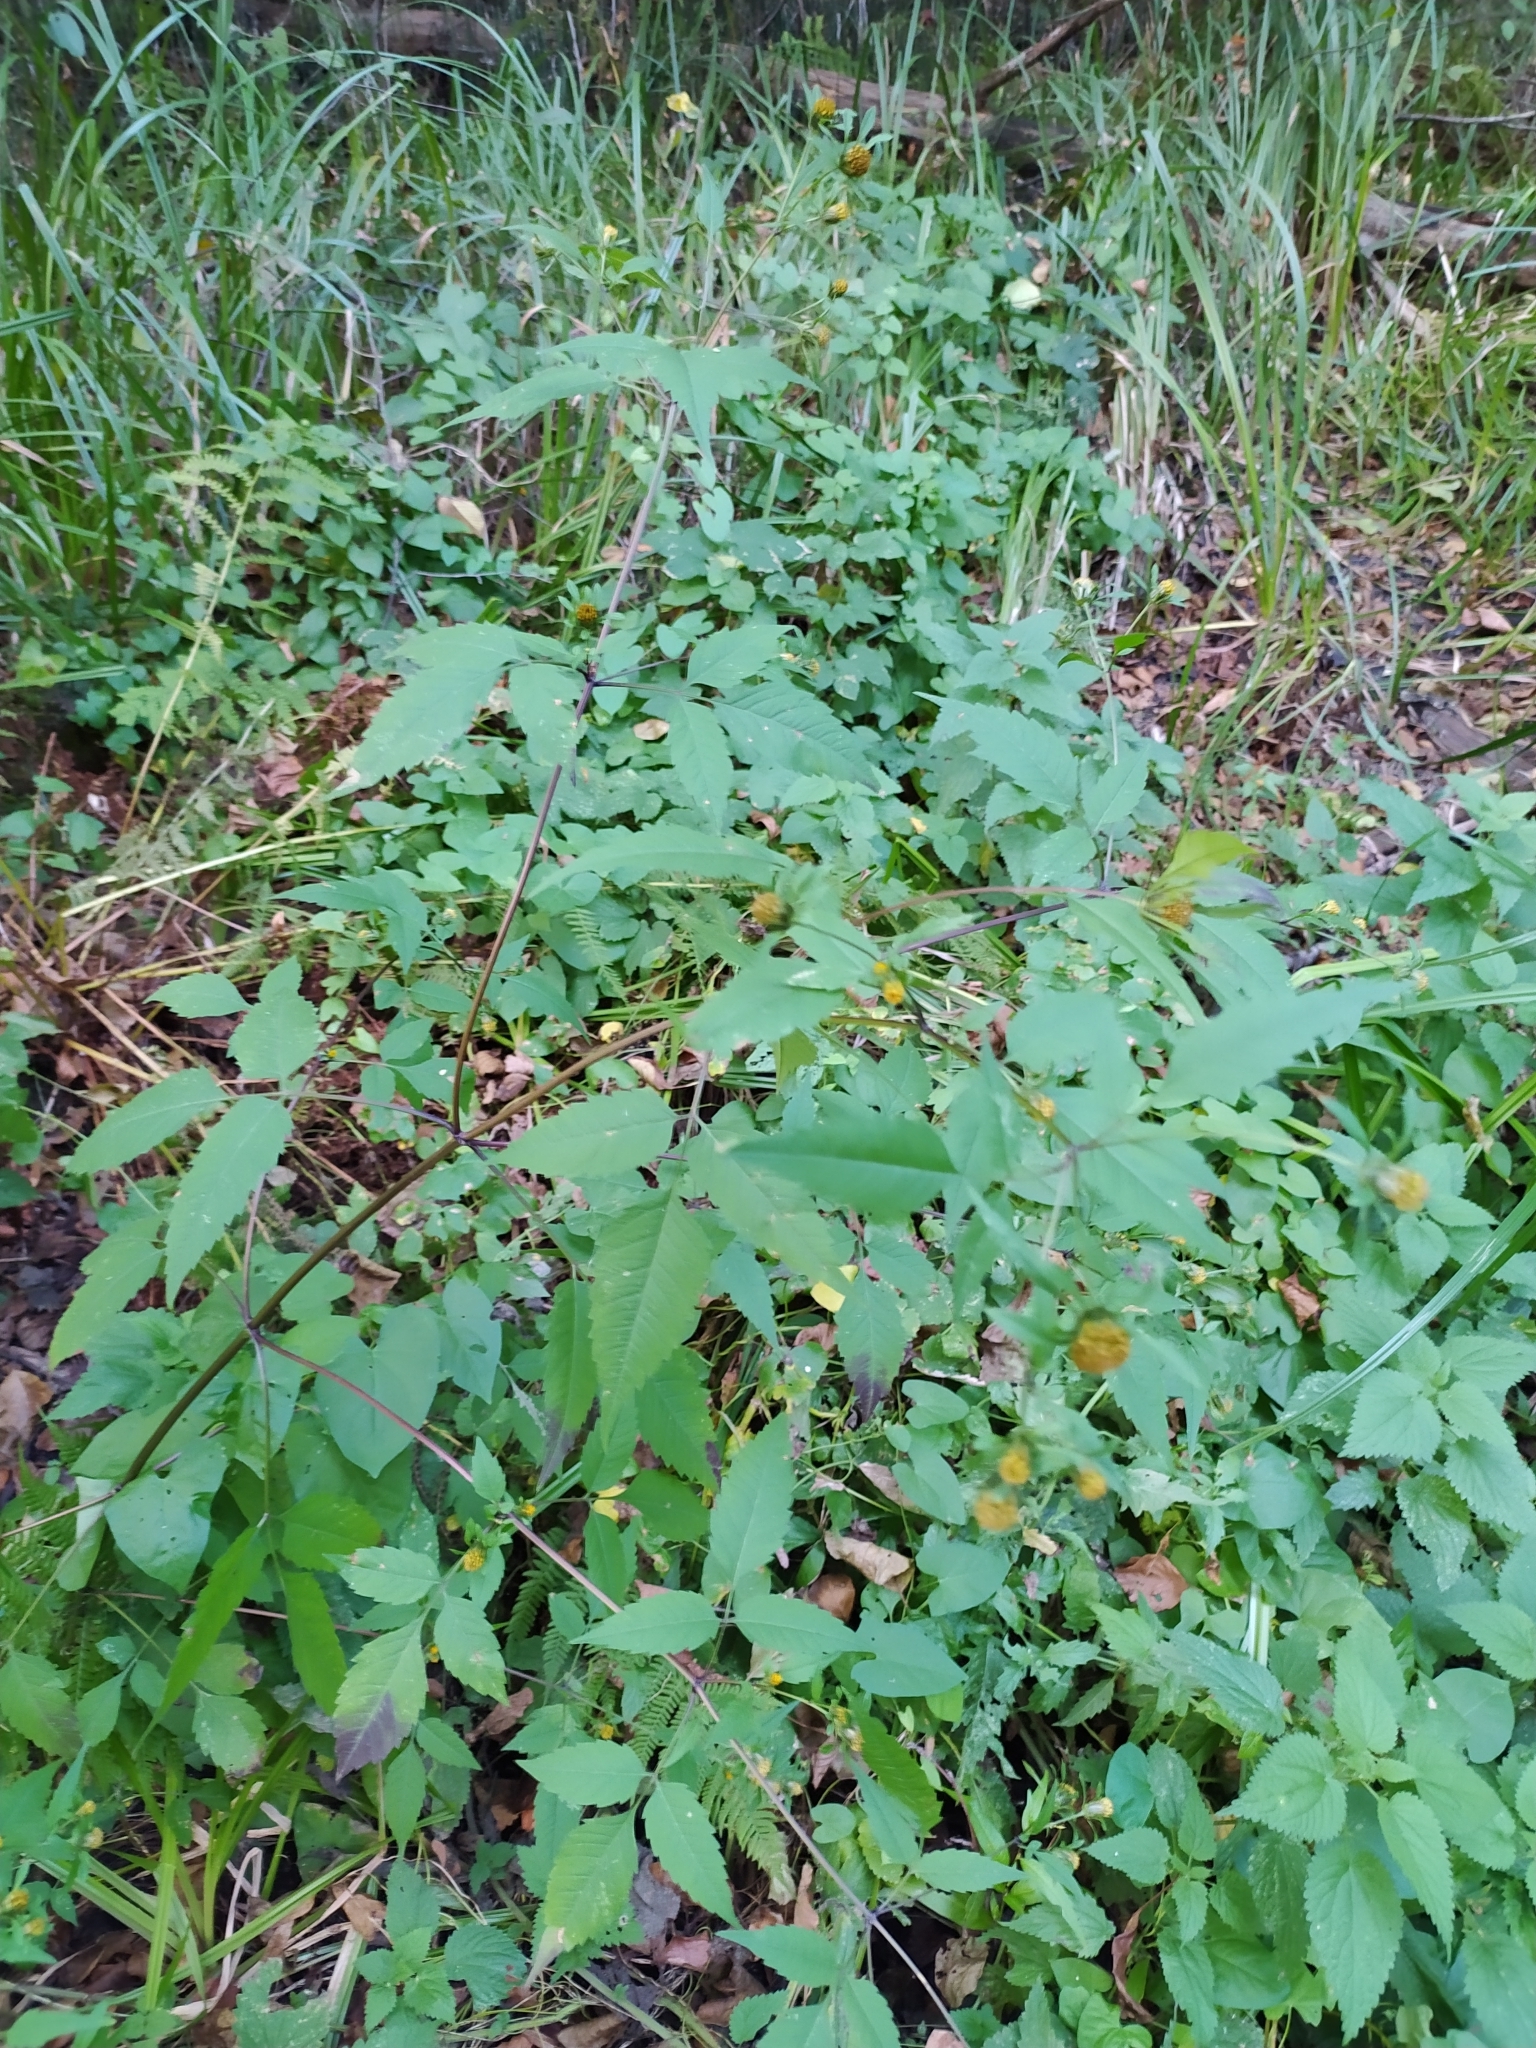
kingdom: Plantae
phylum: Tracheophyta
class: Magnoliopsida
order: Asterales
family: Asteraceae
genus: Bidens
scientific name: Bidens frondosa
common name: Beggarticks
